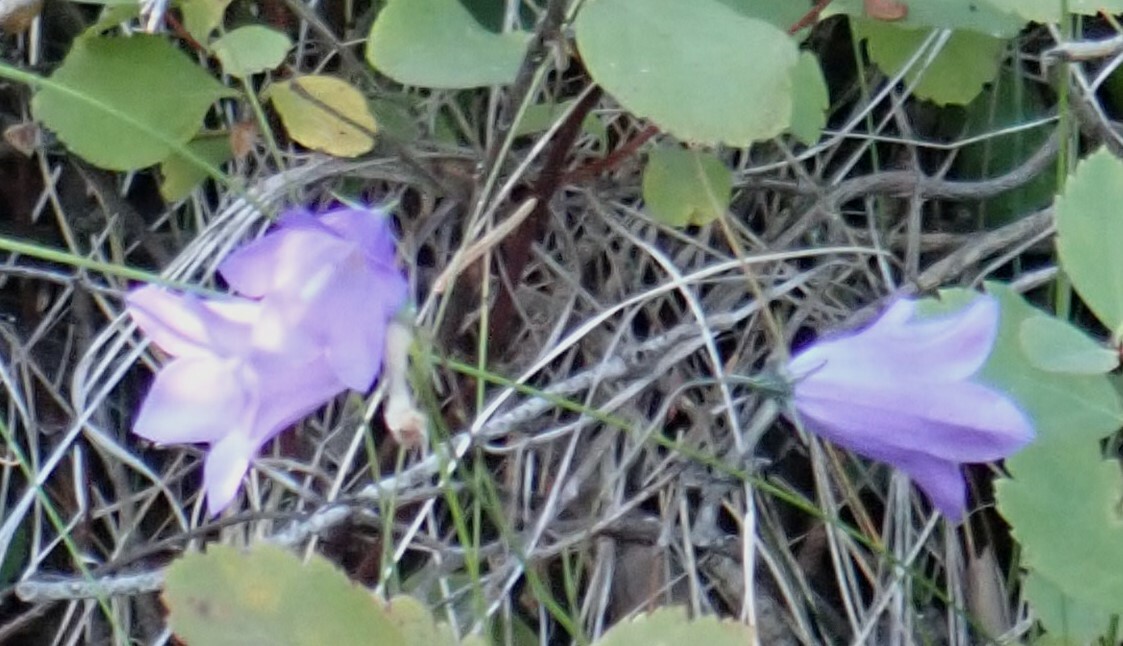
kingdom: Plantae
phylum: Tracheophyta
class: Magnoliopsida
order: Asterales
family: Campanulaceae
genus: Campanula
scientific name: Campanula alaskana
